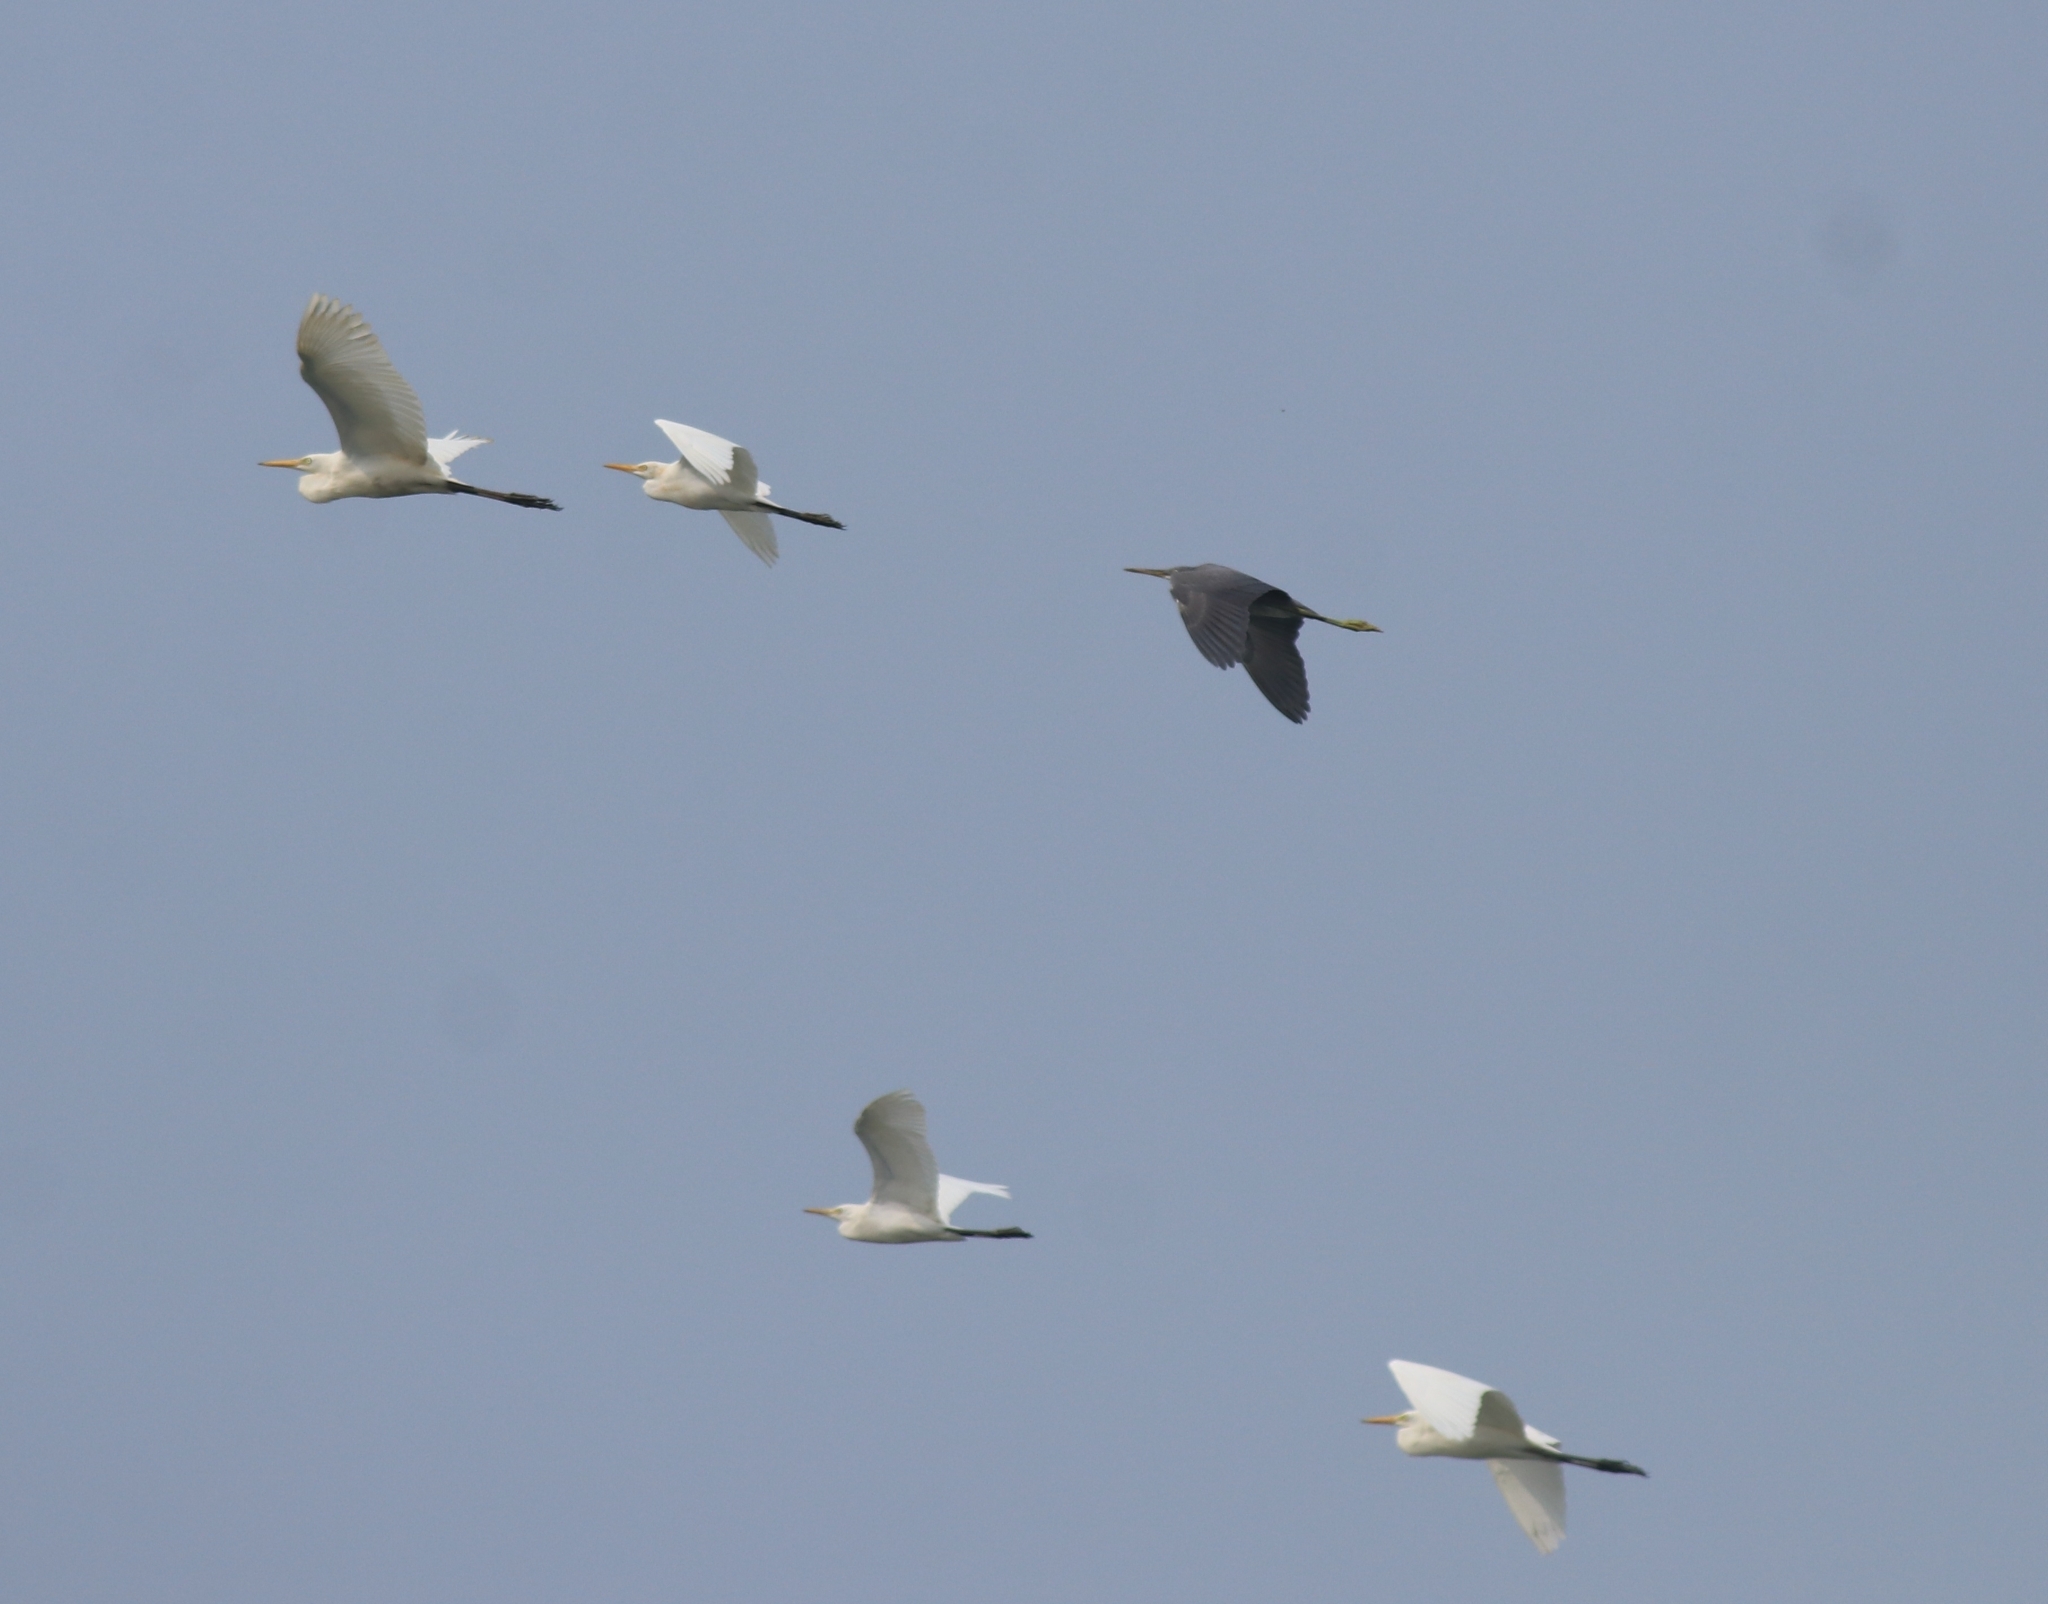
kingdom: Animalia
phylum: Chordata
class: Aves
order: Pelecaniformes
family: Ardeidae
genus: Bubulcus
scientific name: Bubulcus coromandus
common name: Eastern cattle egret
